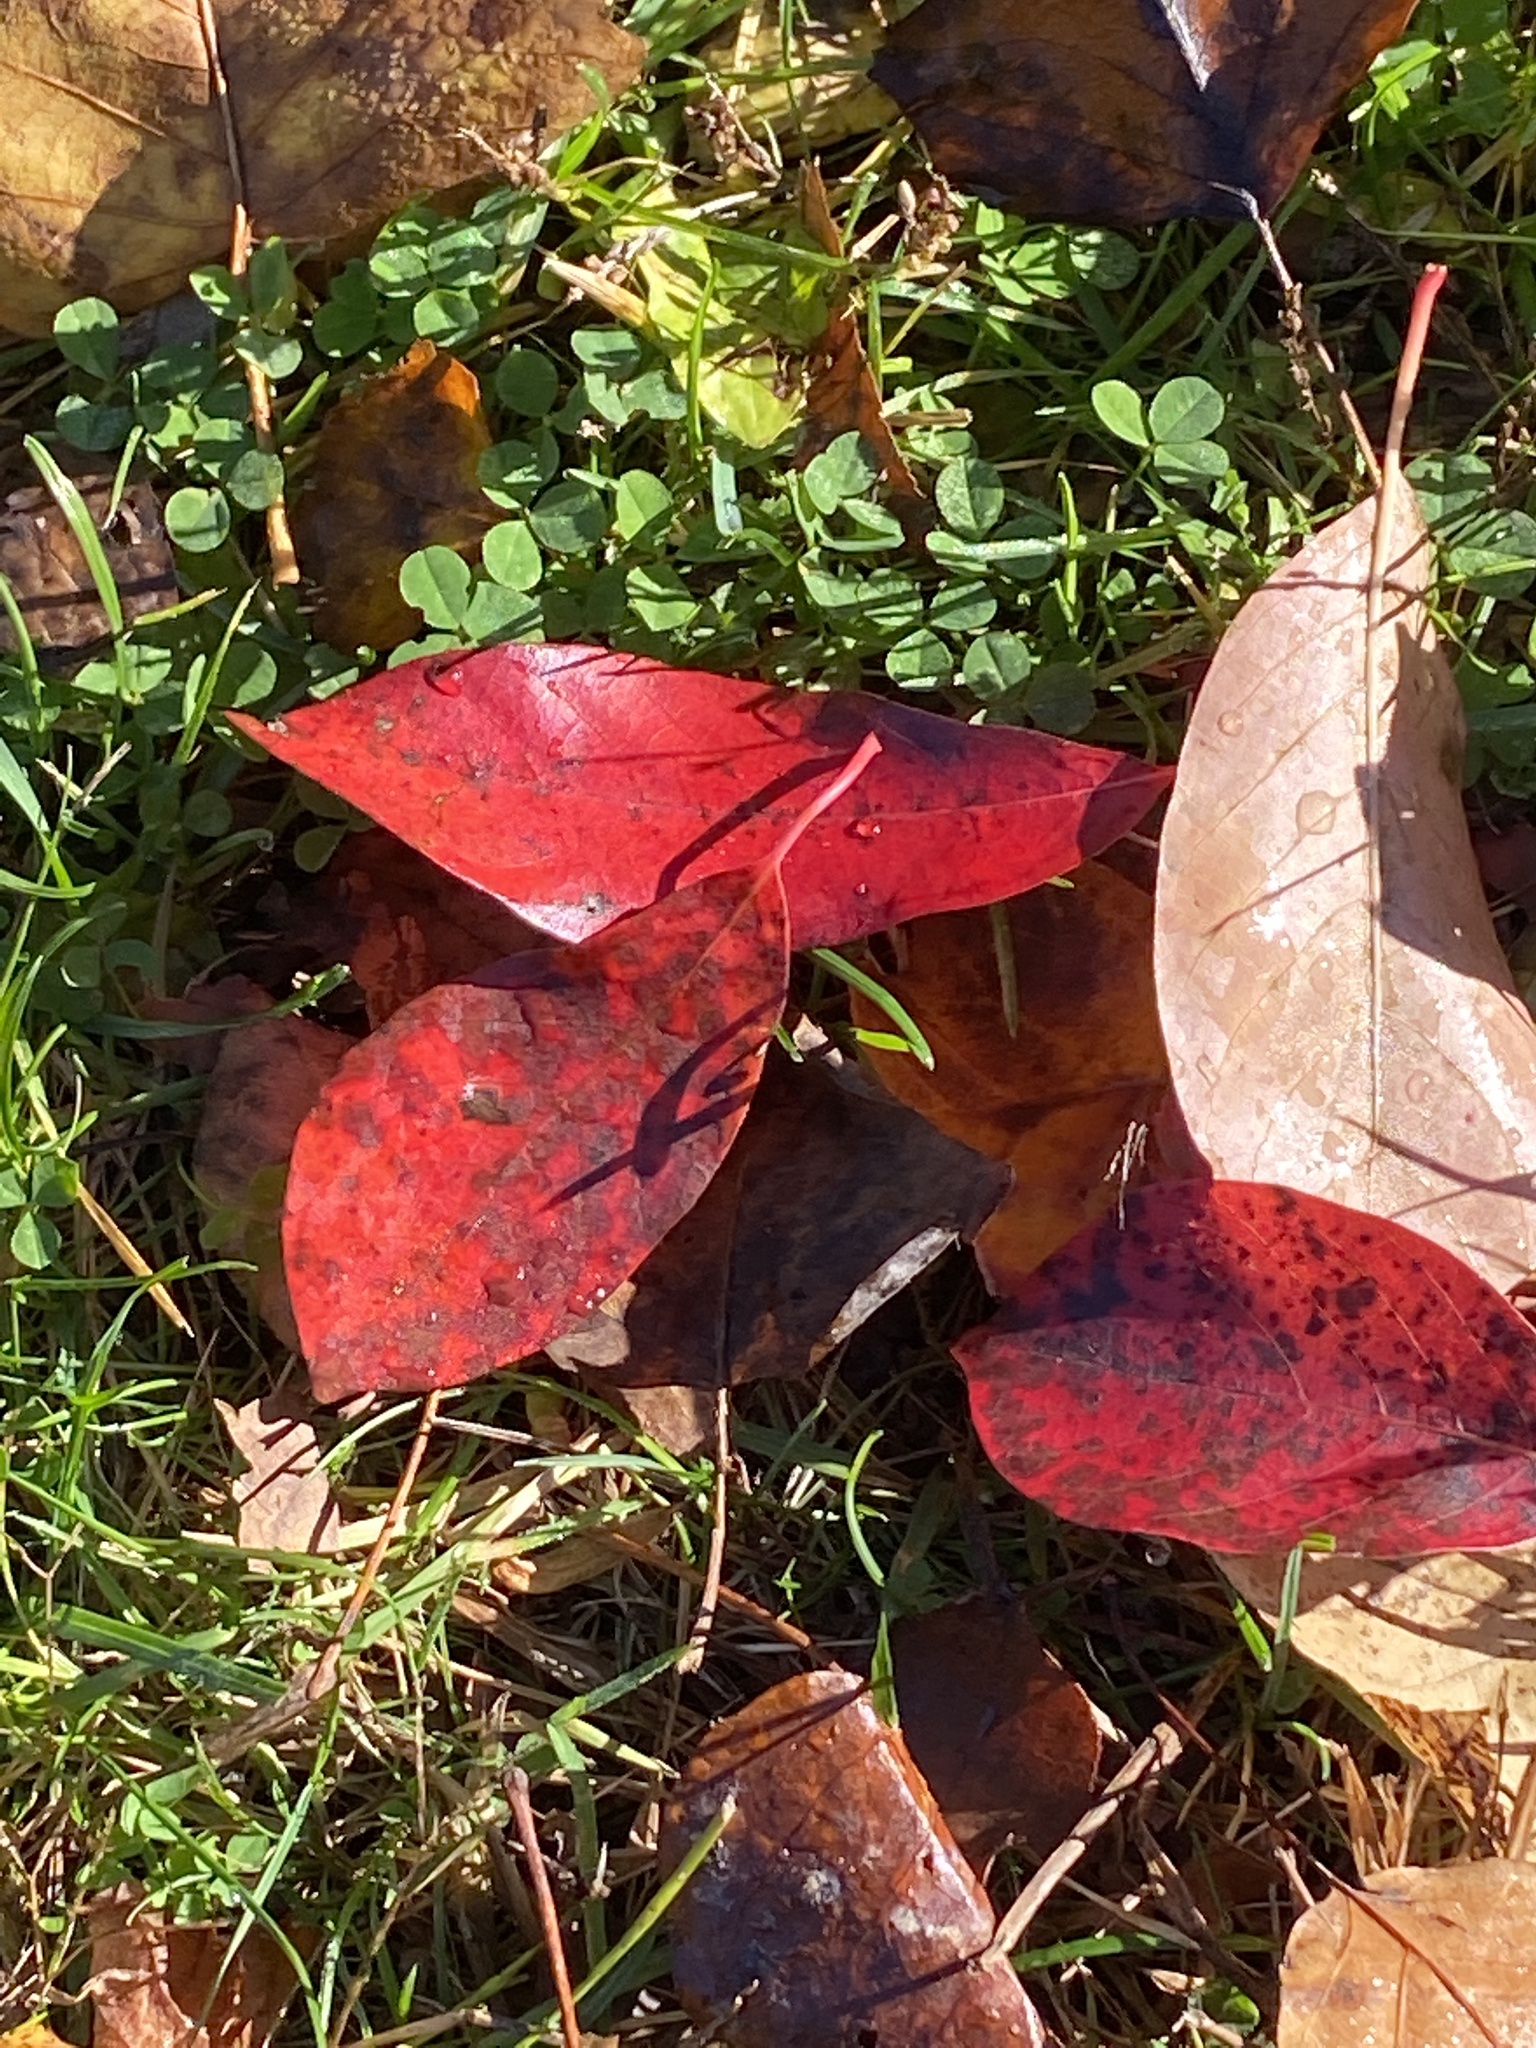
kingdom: Plantae
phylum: Tracheophyta
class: Magnoliopsida
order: Cornales
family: Nyssaceae
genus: Nyssa
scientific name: Nyssa sylvatica
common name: Black tupelo
